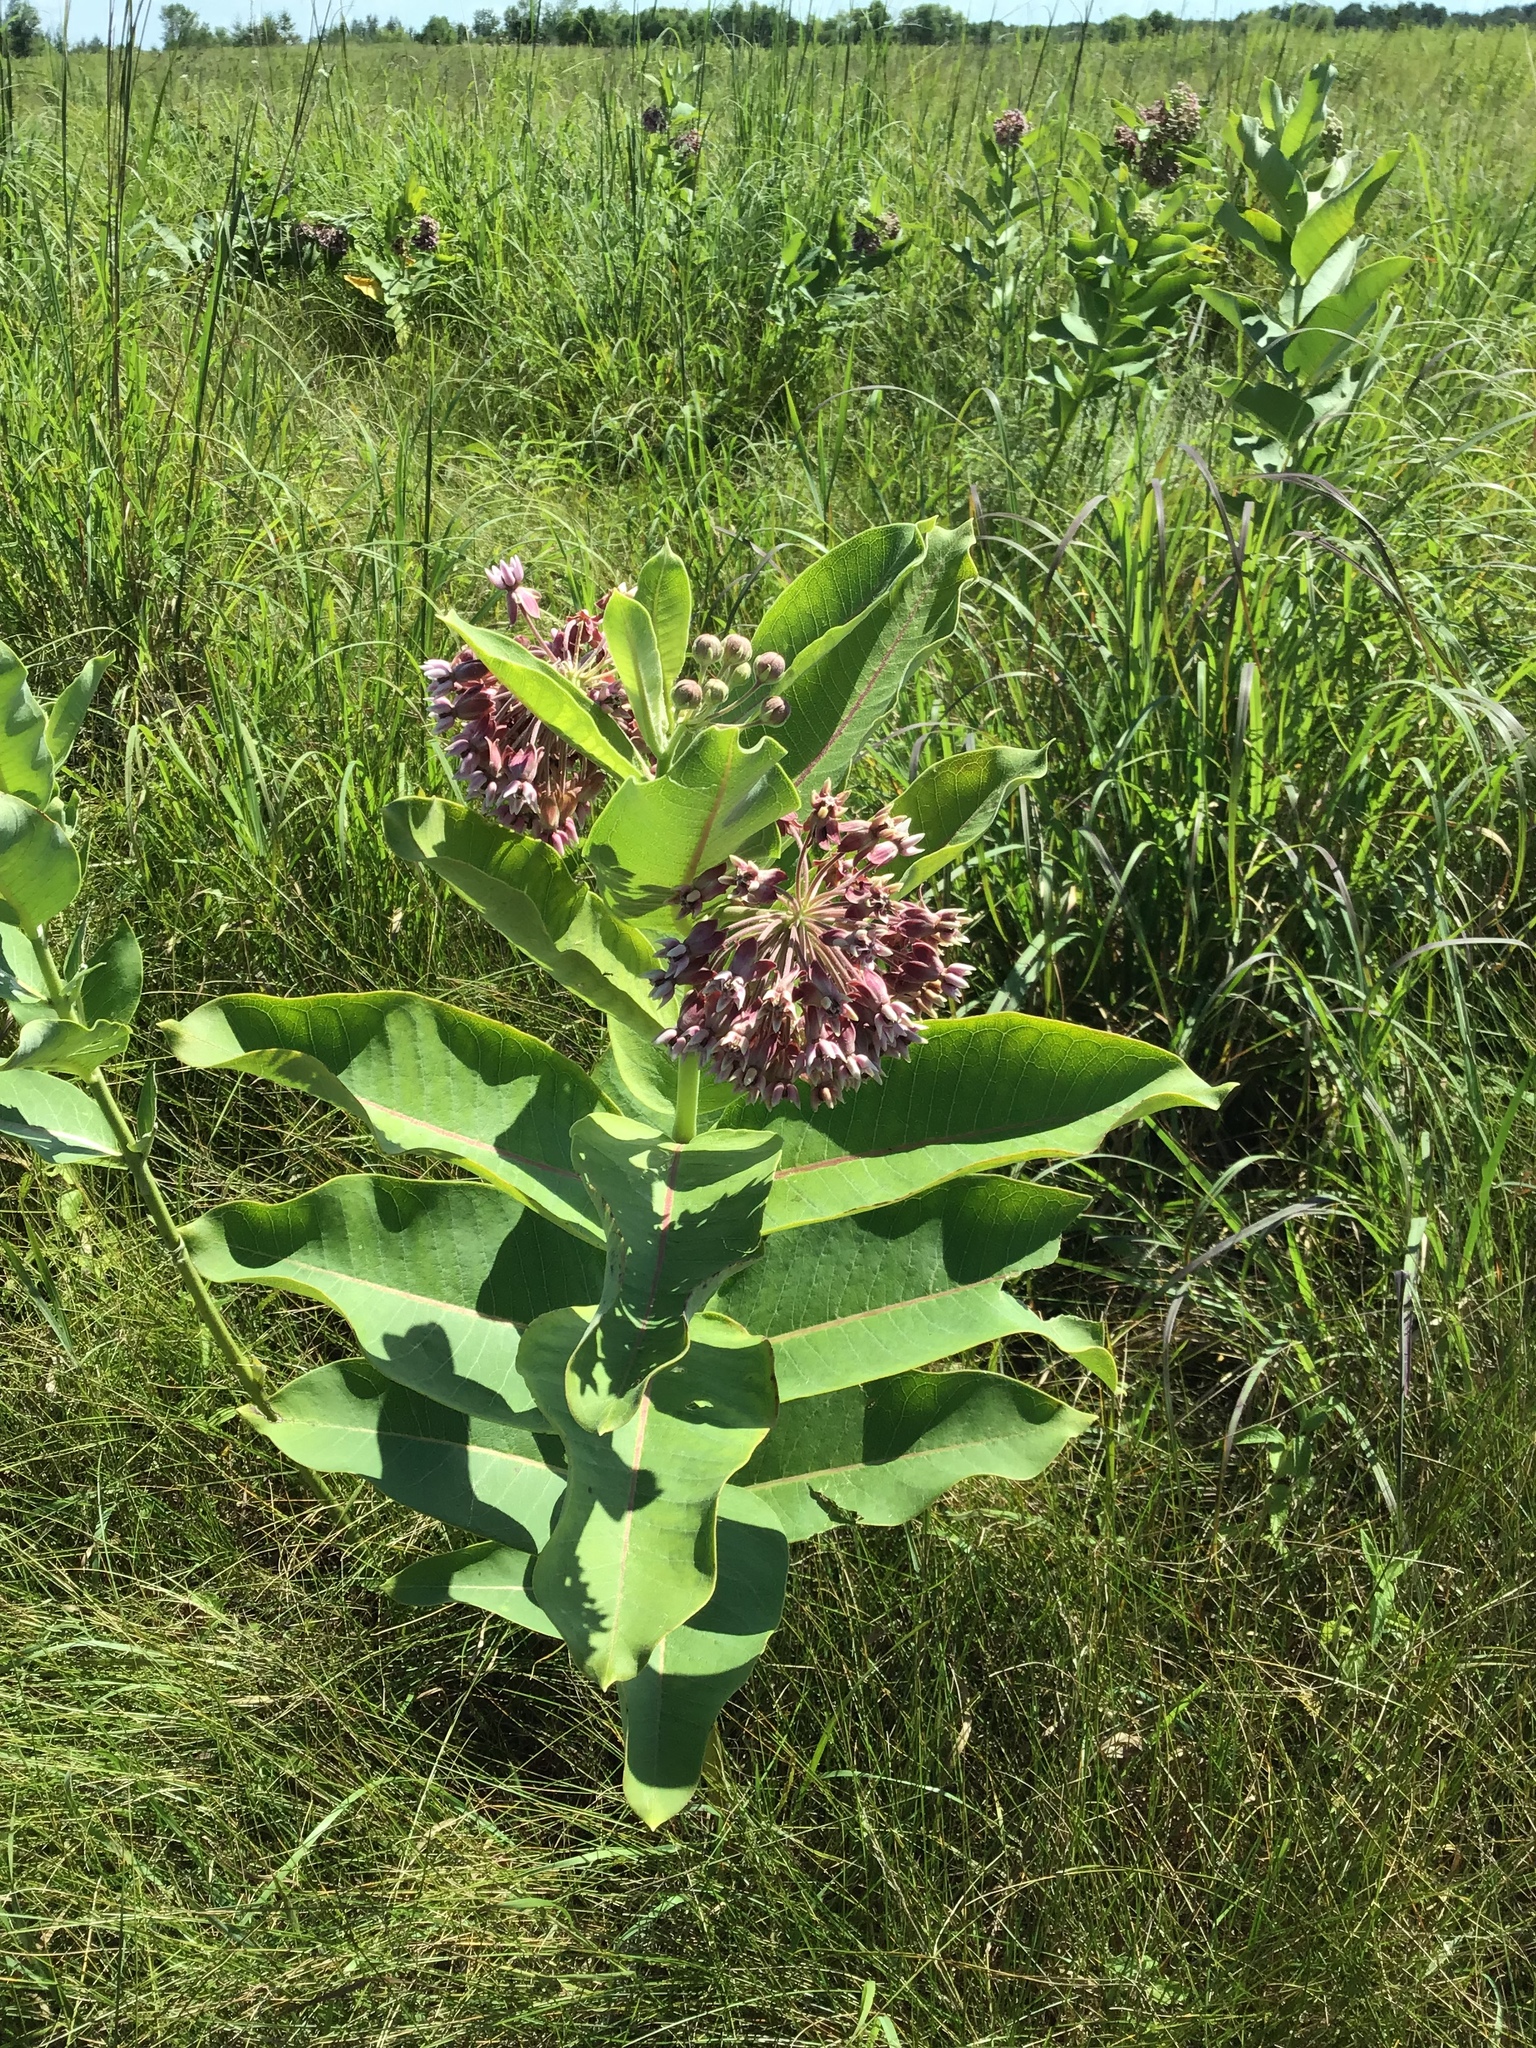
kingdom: Plantae
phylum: Tracheophyta
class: Magnoliopsida
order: Gentianales
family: Apocynaceae
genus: Asclepias
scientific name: Asclepias syriaca
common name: Common milkweed
